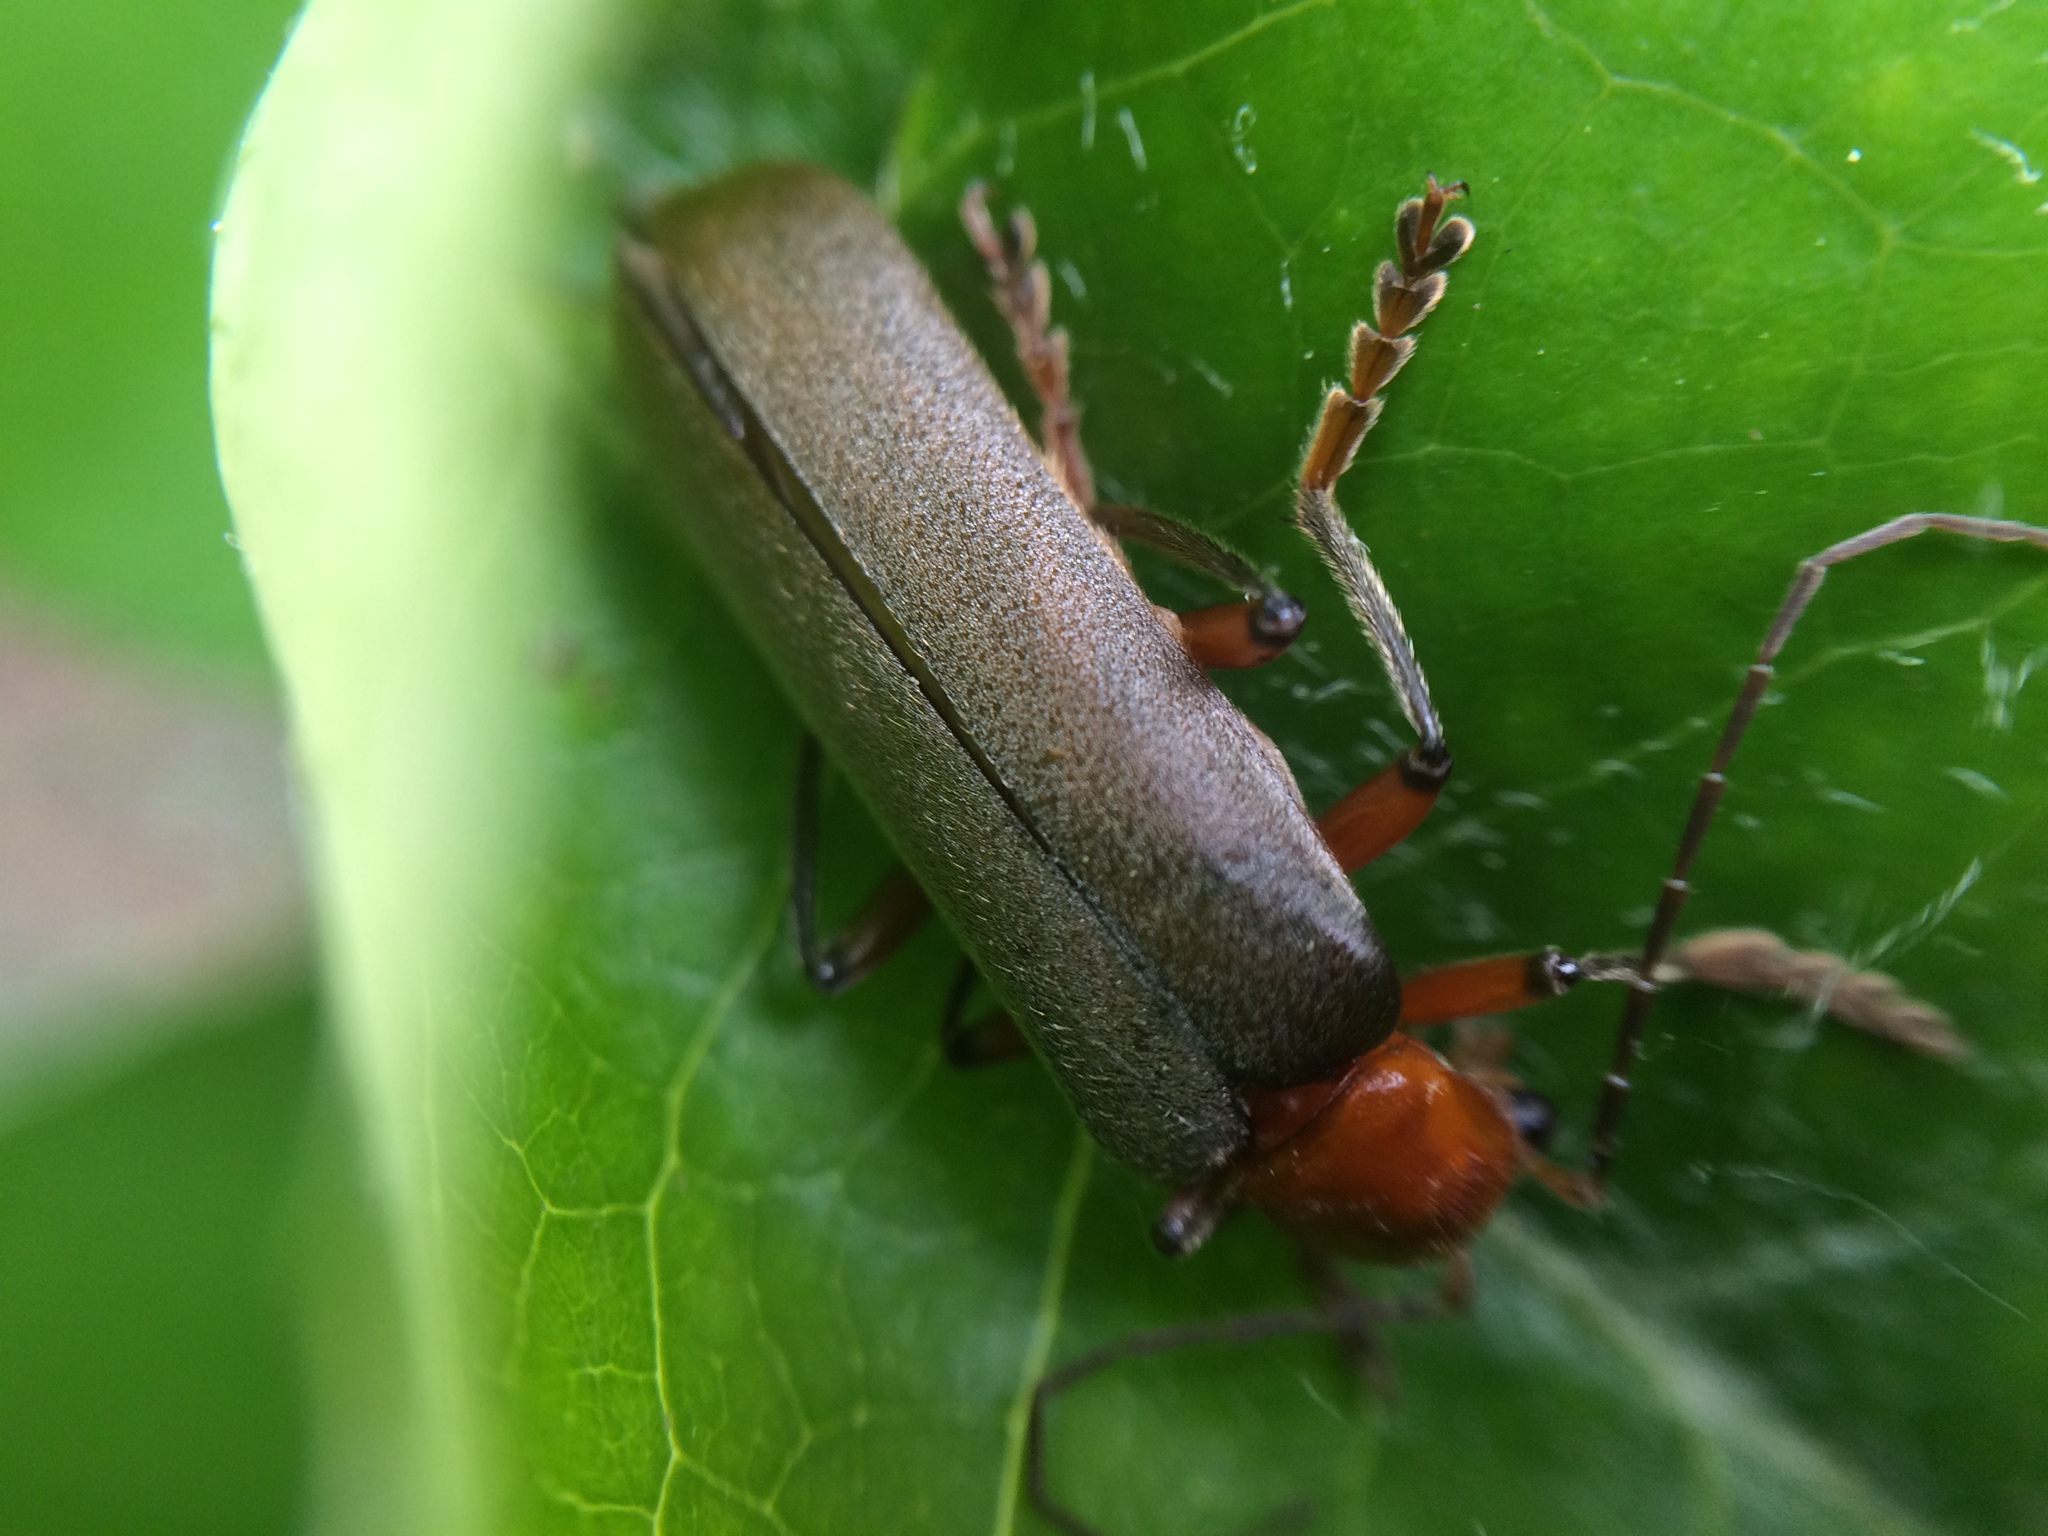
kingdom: Animalia
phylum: Arthropoda
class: Insecta
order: Coleoptera
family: Cantharidae
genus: Pacificanthia
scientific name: Pacificanthia consors
